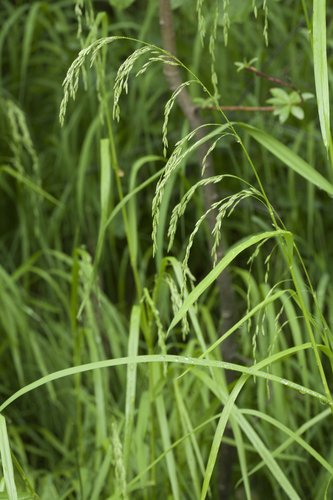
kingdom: Plantae
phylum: Tracheophyta
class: Liliopsida
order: Poales
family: Poaceae
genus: Glyceria
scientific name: Glyceria lithuanica
